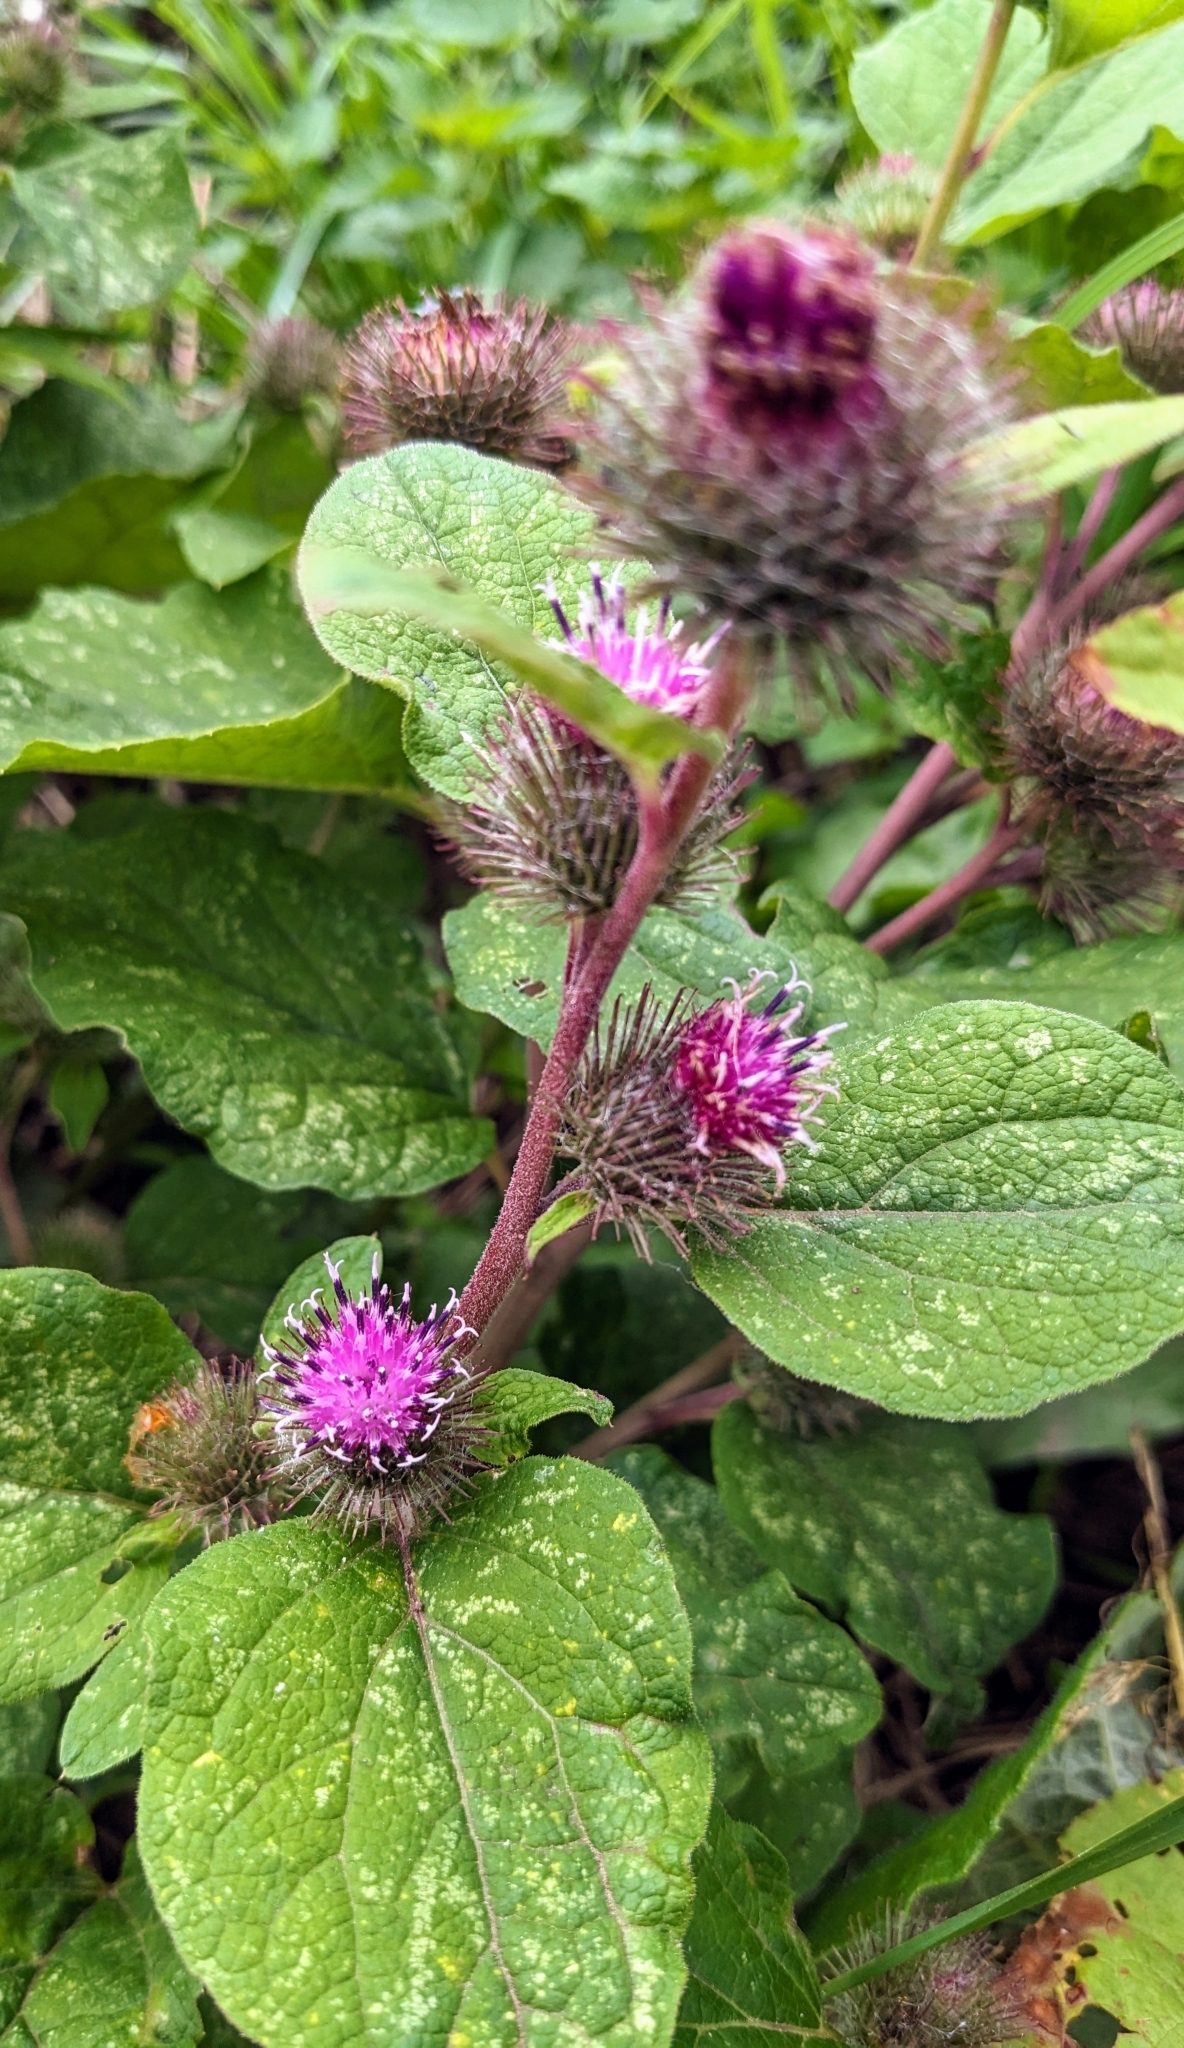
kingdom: Plantae
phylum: Tracheophyta
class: Magnoliopsida
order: Asterales
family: Asteraceae
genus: Arctium
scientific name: Arctium minus
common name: Lesser burdock
